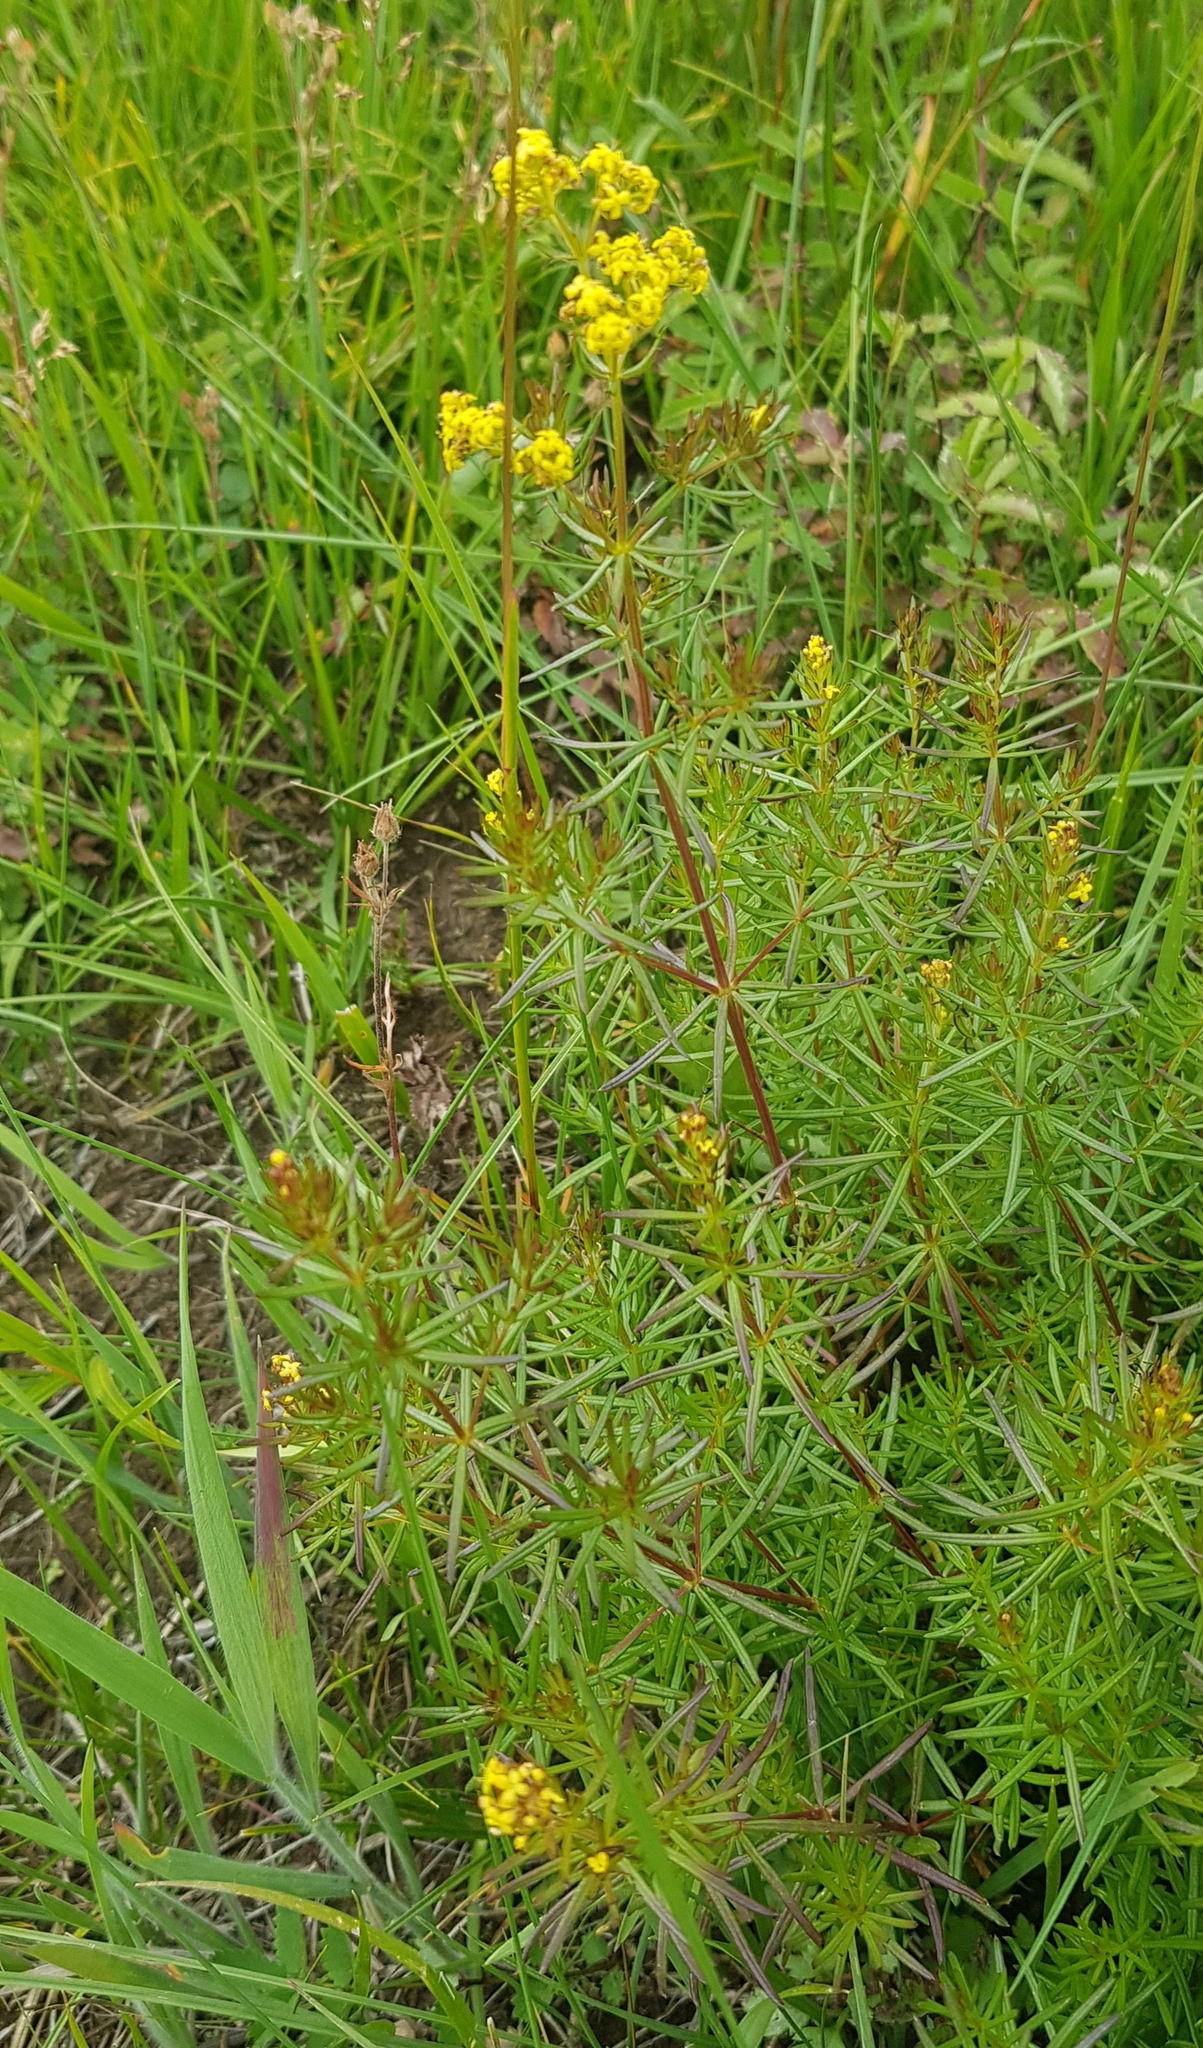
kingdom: Plantae
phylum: Tracheophyta
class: Magnoliopsida
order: Gentianales
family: Rubiaceae
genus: Galium
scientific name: Galium verum
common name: Lady's bedstraw
